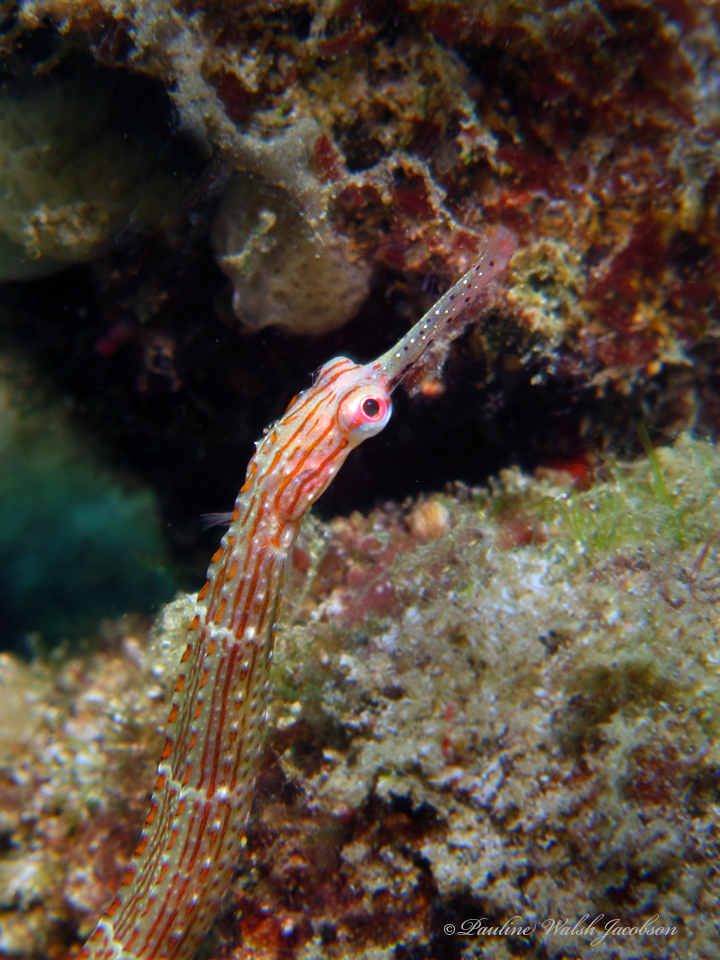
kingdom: Animalia
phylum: Chordata
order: Syngnathiformes
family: Syngnathidae
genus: Corythoichthys
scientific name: Corythoichthys ocellatus
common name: Ocellated pipefish
